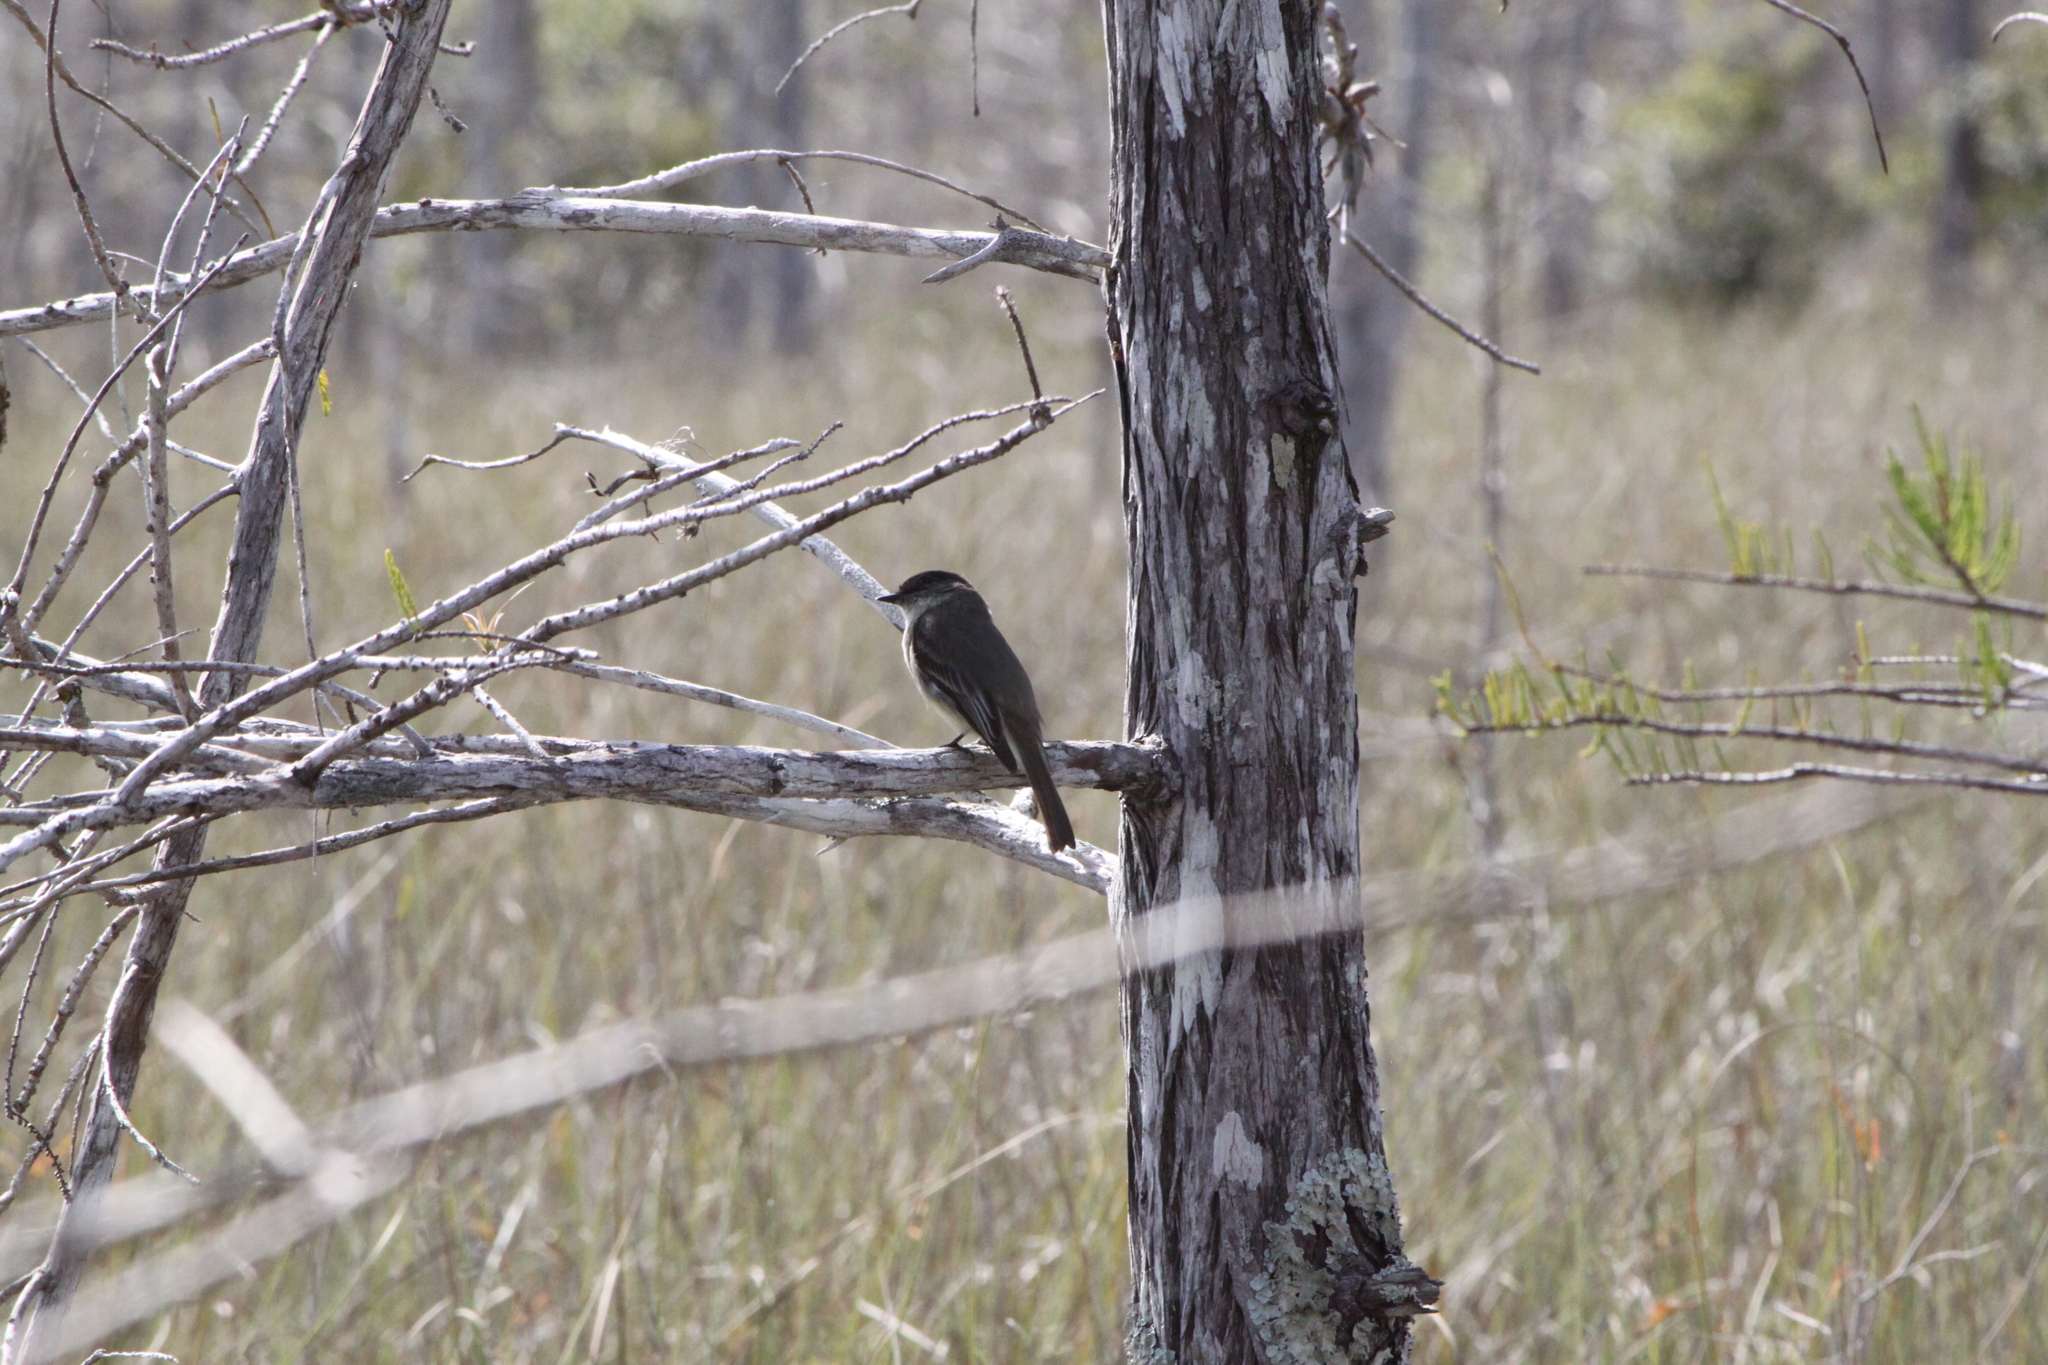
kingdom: Animalia
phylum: Chordata
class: Aves
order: Passeriformes
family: Tyrannidae
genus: Sayornis
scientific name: Sayornis phoebe
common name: Eastern phoebe
